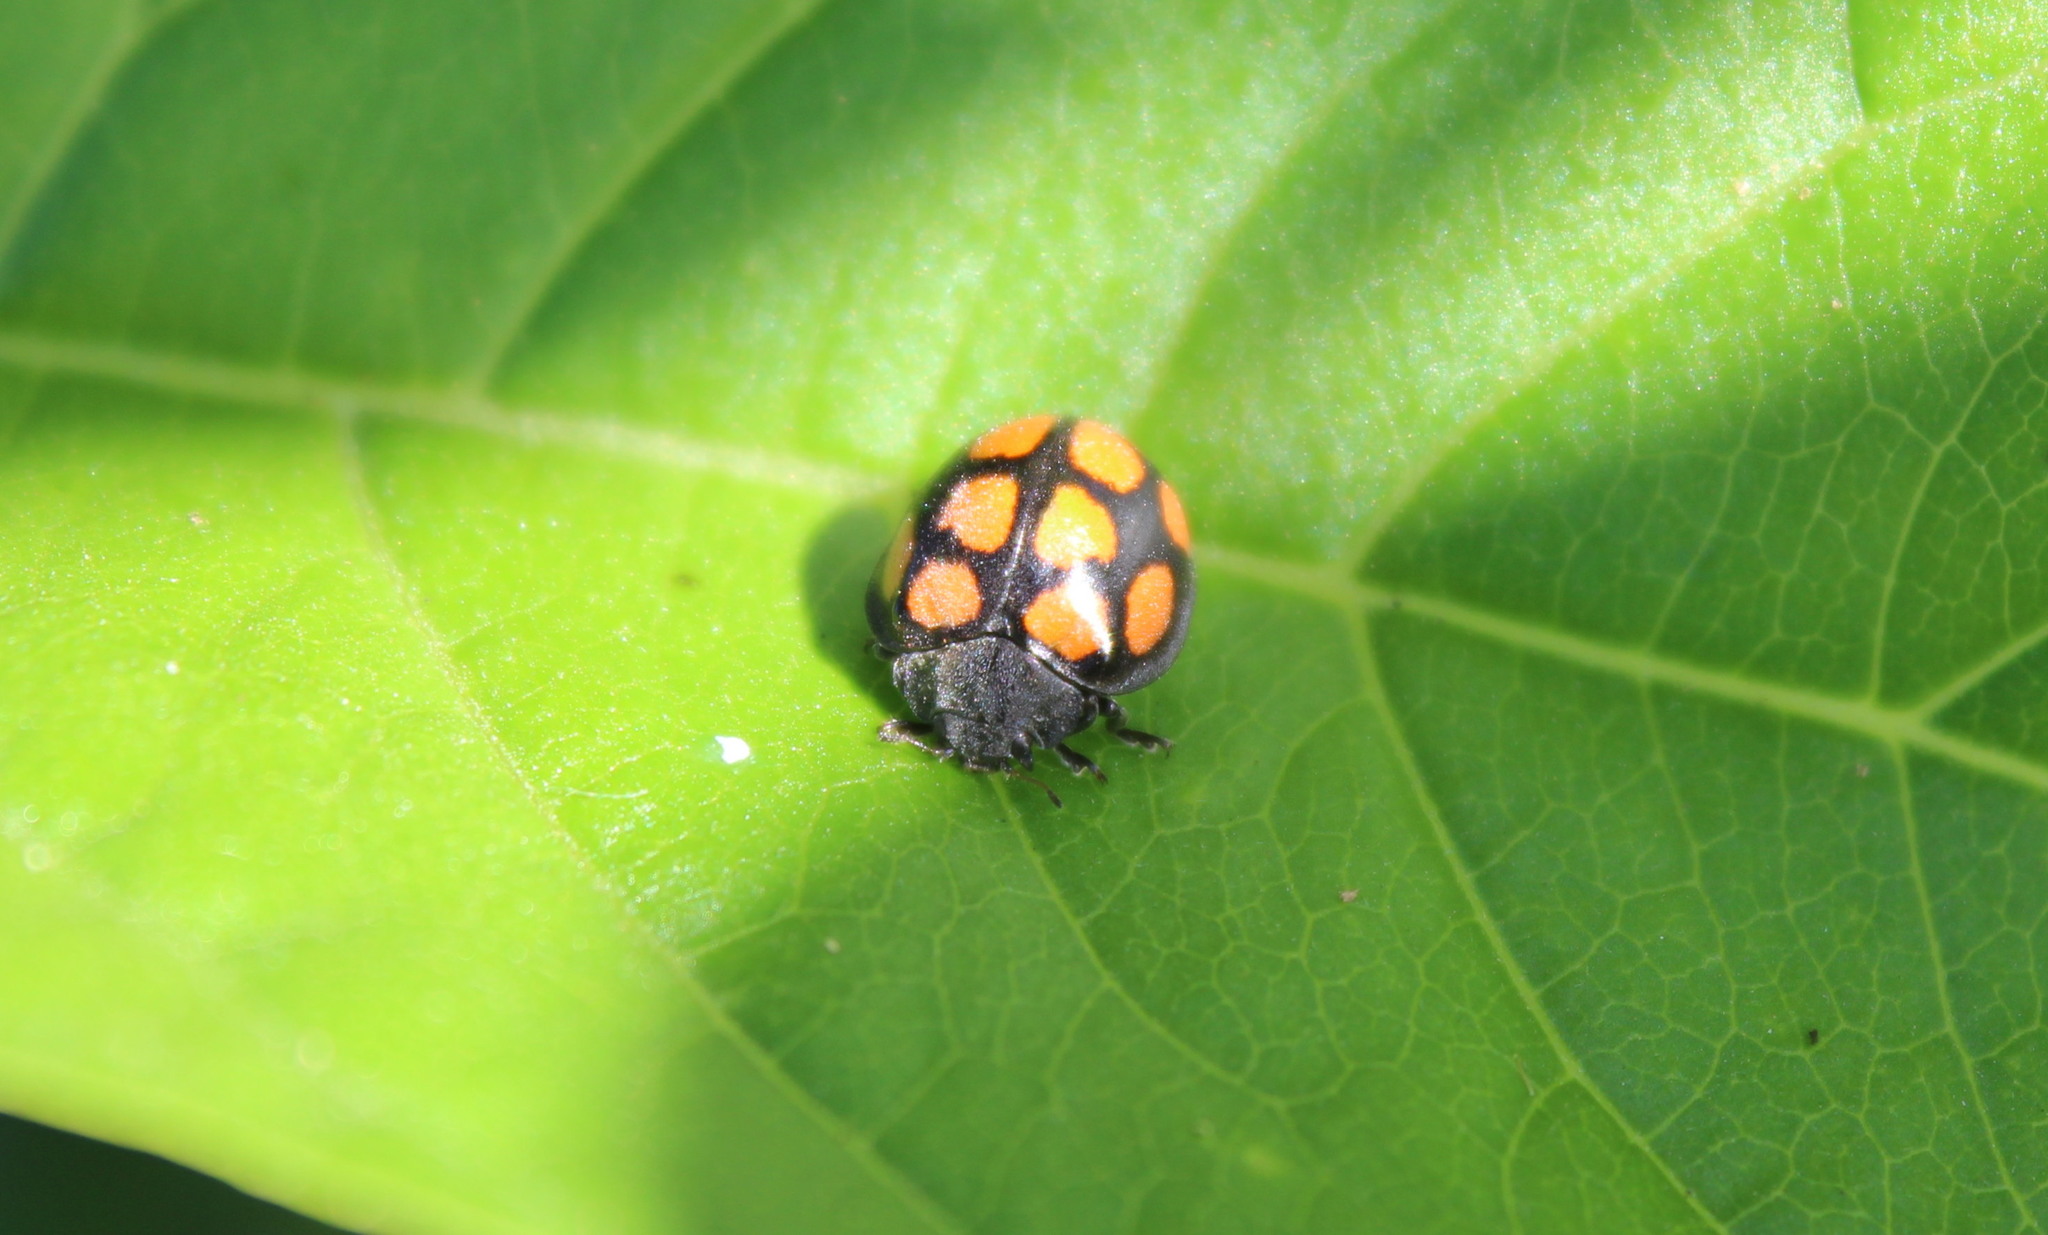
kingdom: Animalia
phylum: Arthropoda
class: Insecta
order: Coleoptera
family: Coccinellidae
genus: Epilachna
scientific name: Epilachna
